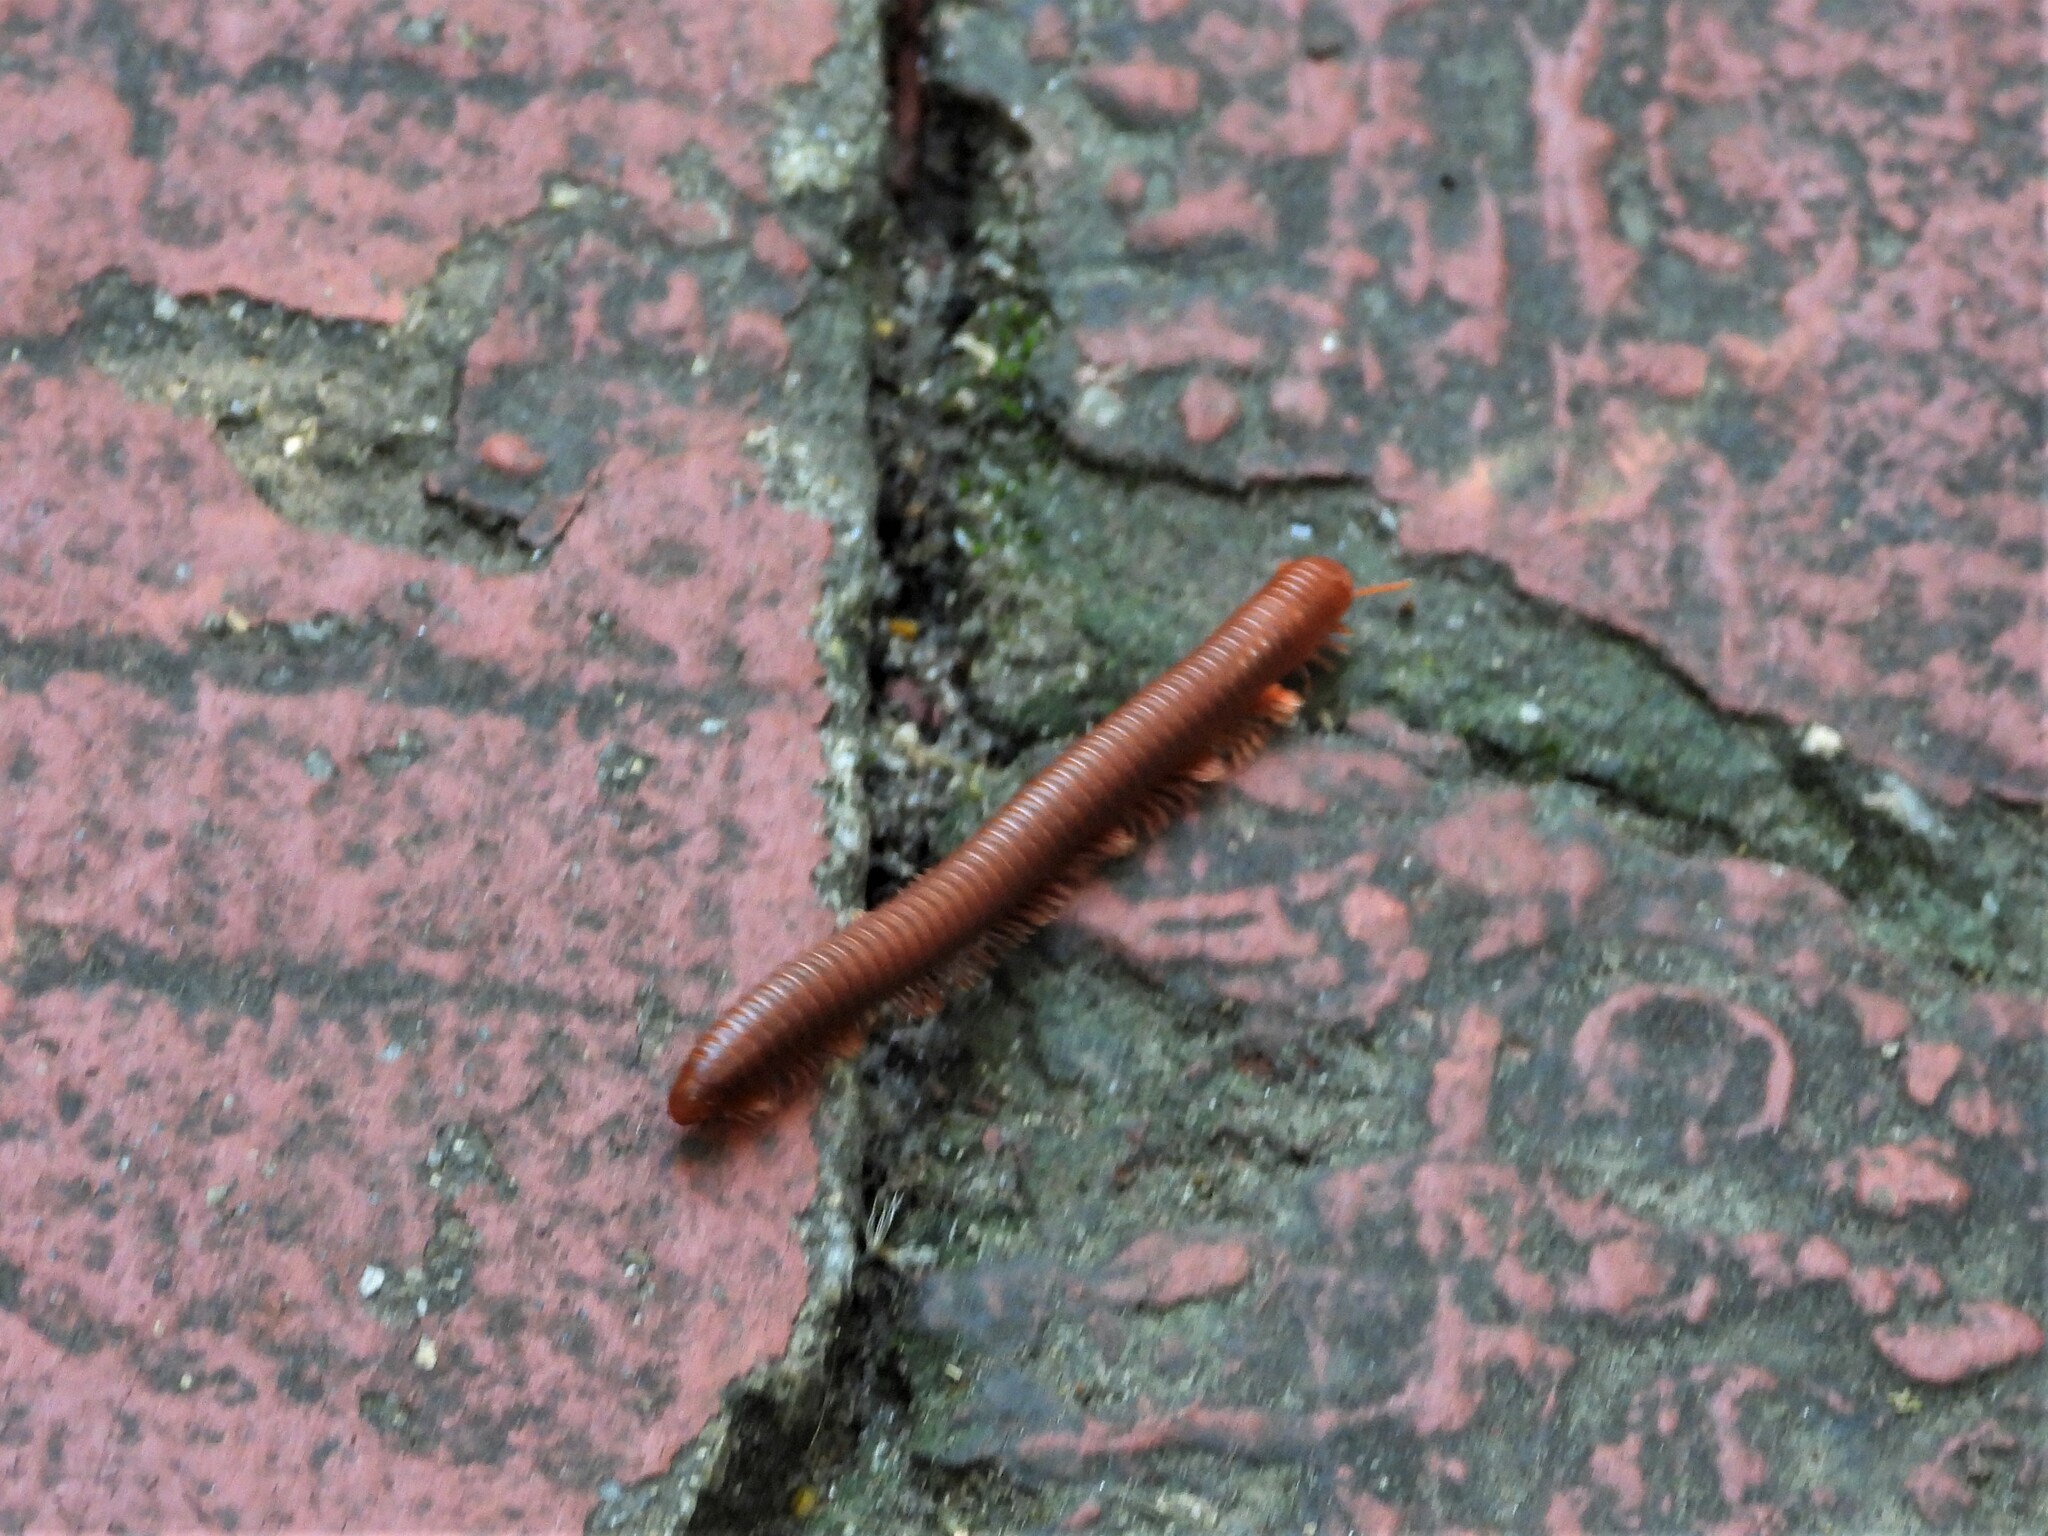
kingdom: Animalia
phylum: Arthropoda
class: Diplopoda
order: Spirobolida
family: Pachybolidae
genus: Trigoniulus
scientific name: Trigoniulus corallinus
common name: Millipede
